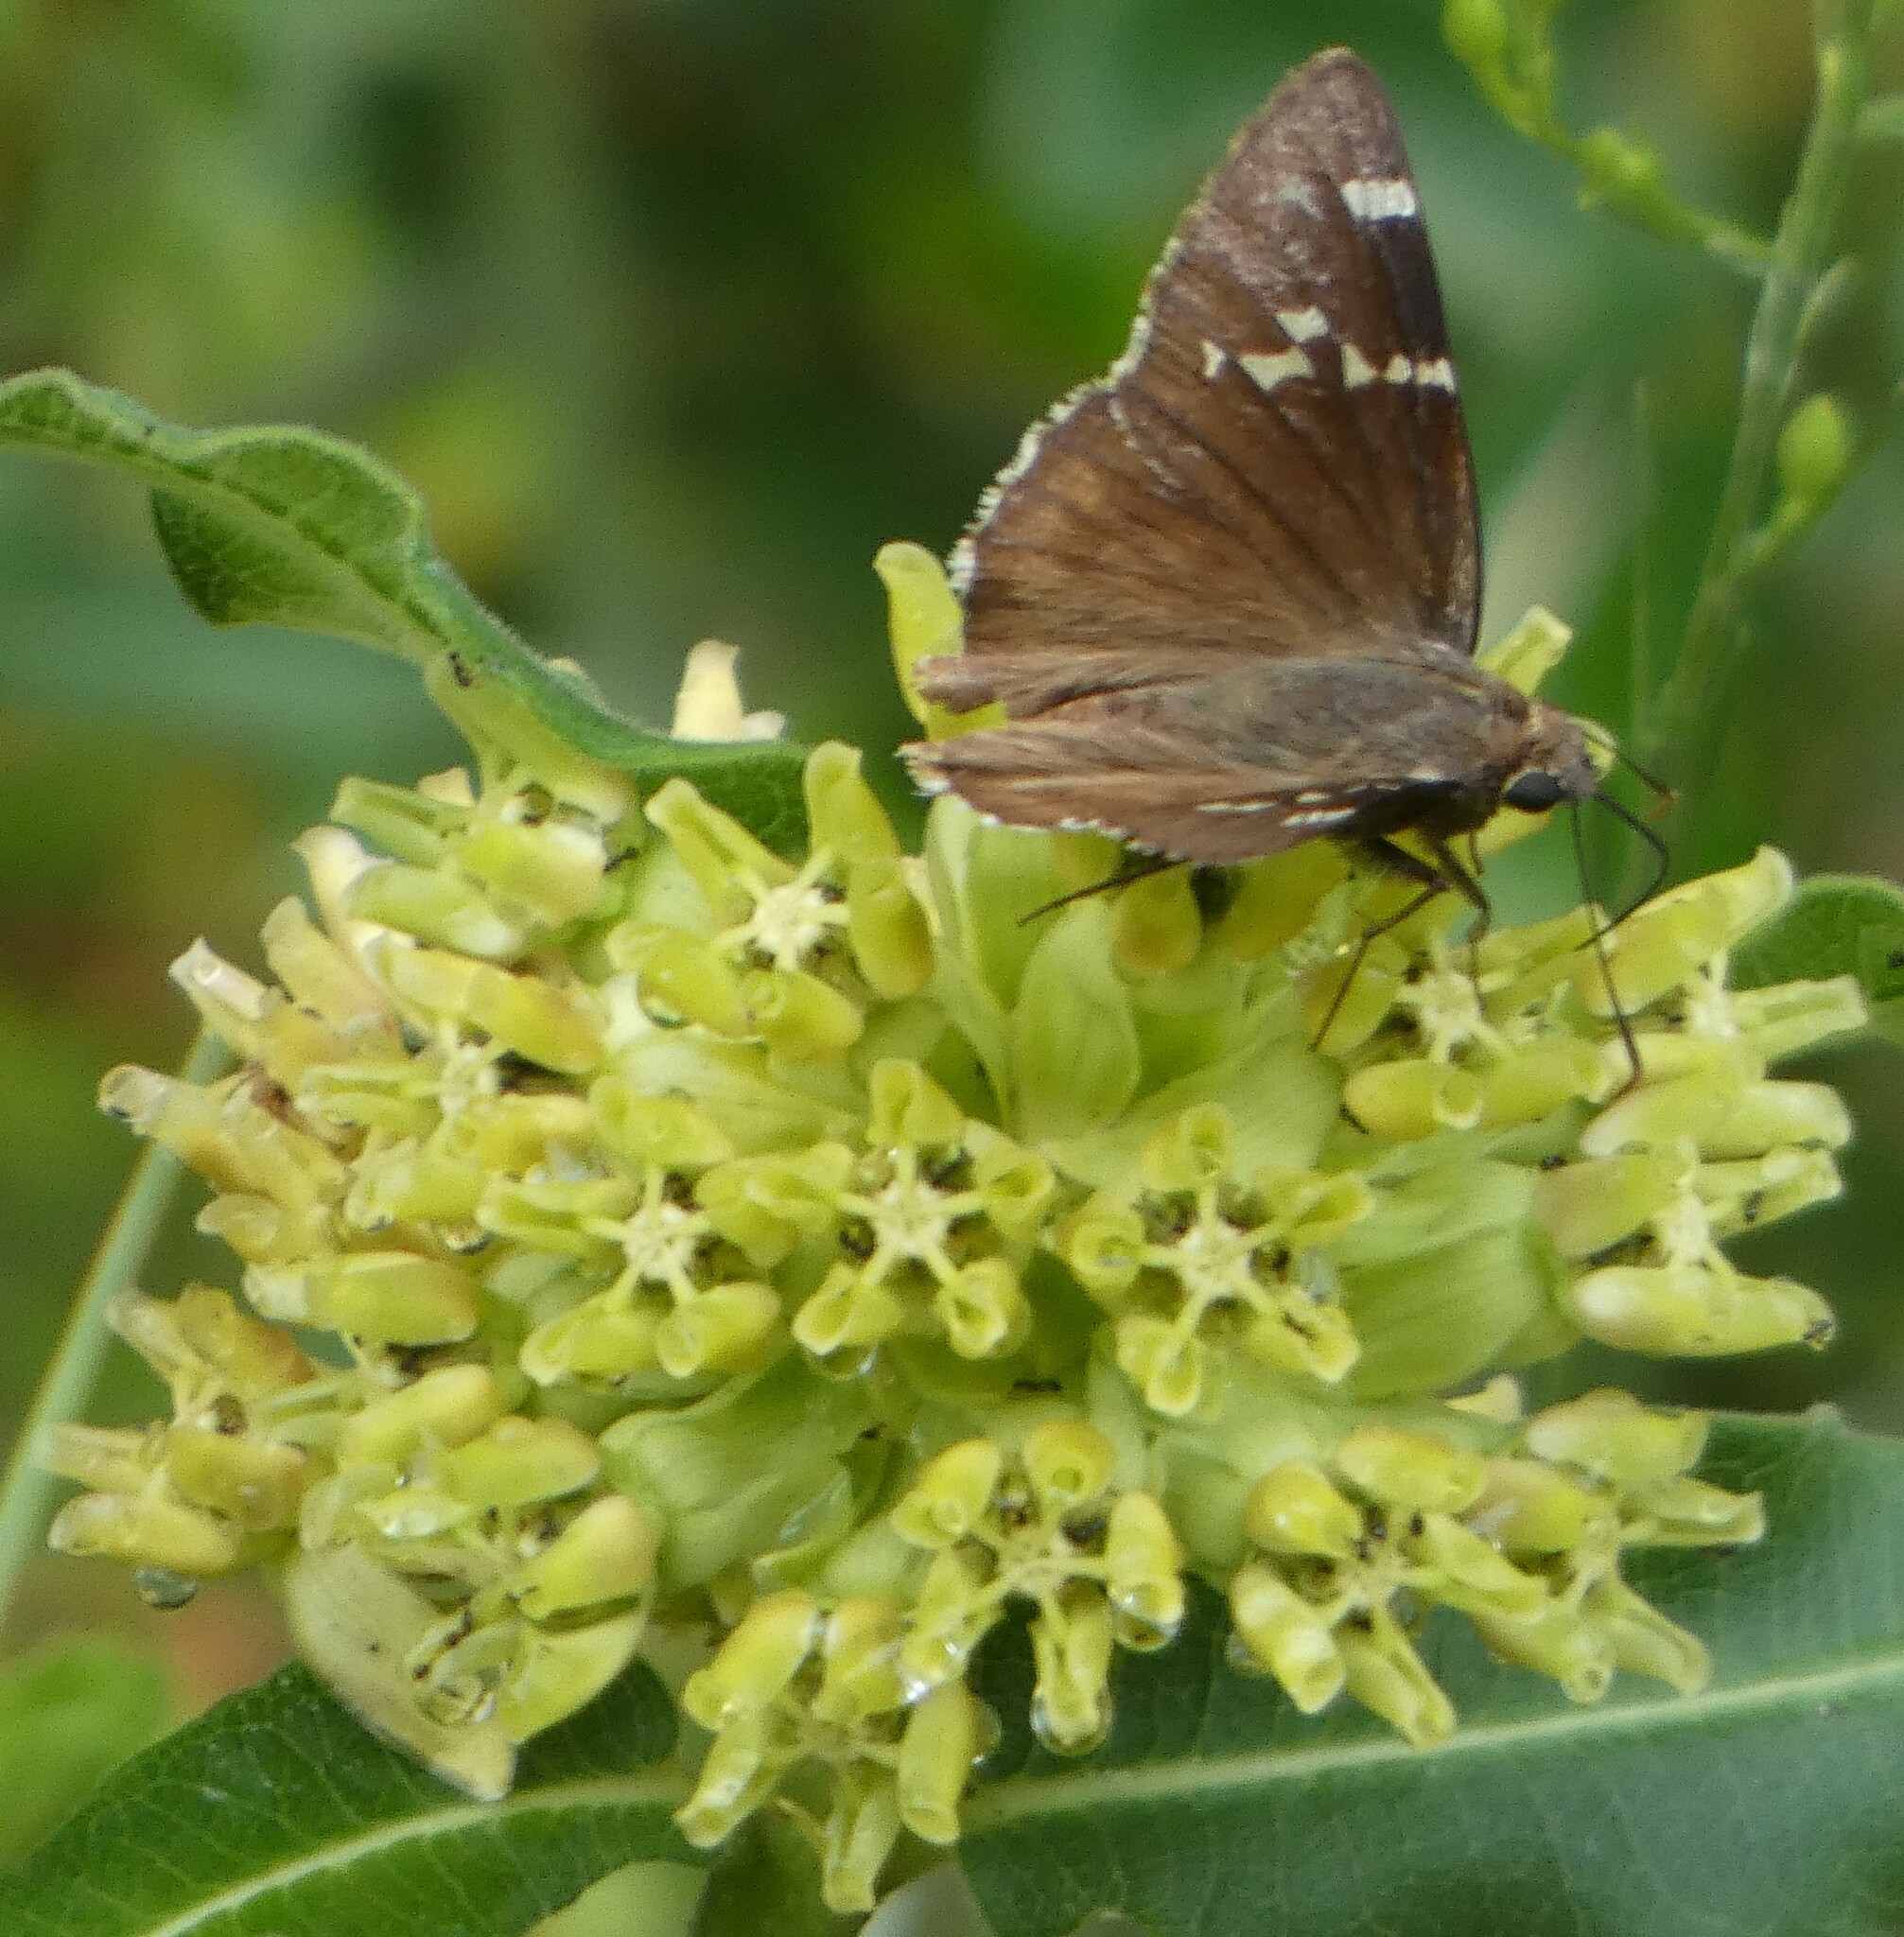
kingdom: Animalia
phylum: Arthropoda
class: Insecta
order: Lepidoptera
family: Hesperiidae
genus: Thorybes
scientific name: Thorybes daunus
